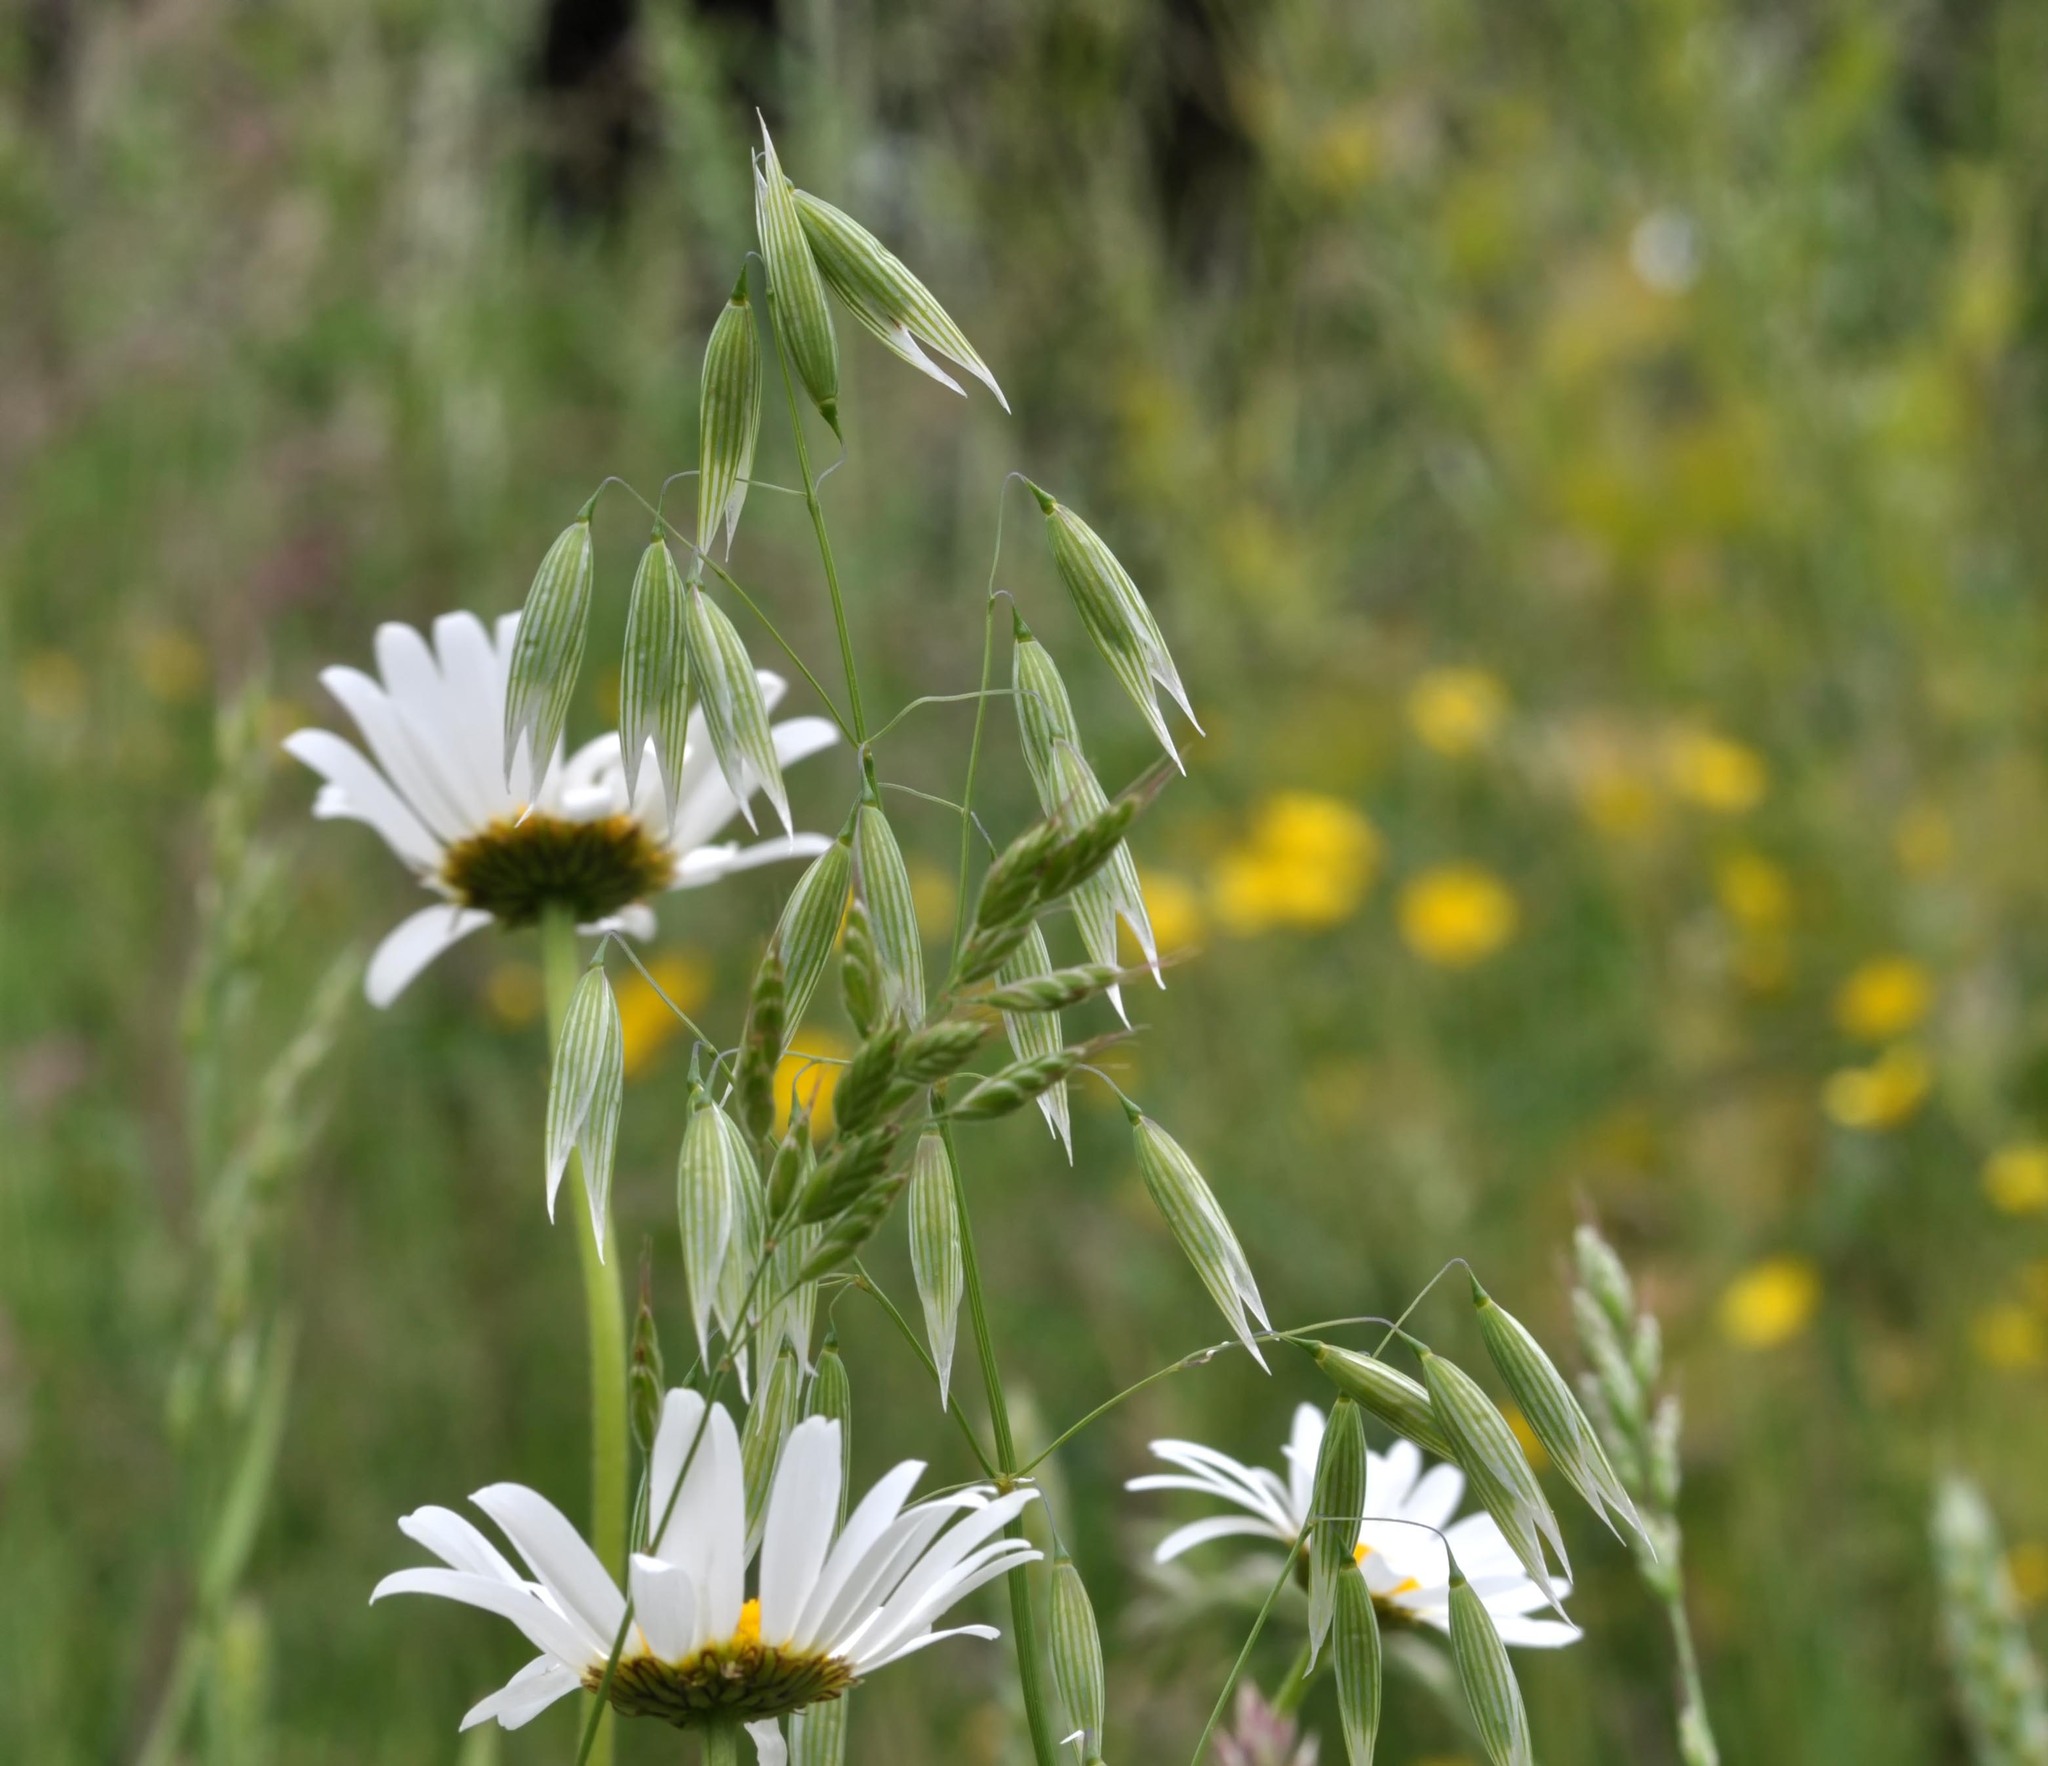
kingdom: Plantae
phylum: Tracheophyta
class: Liliopsida
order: Poales
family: Poaceae
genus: Avena
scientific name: Avena sativa
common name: Oat
